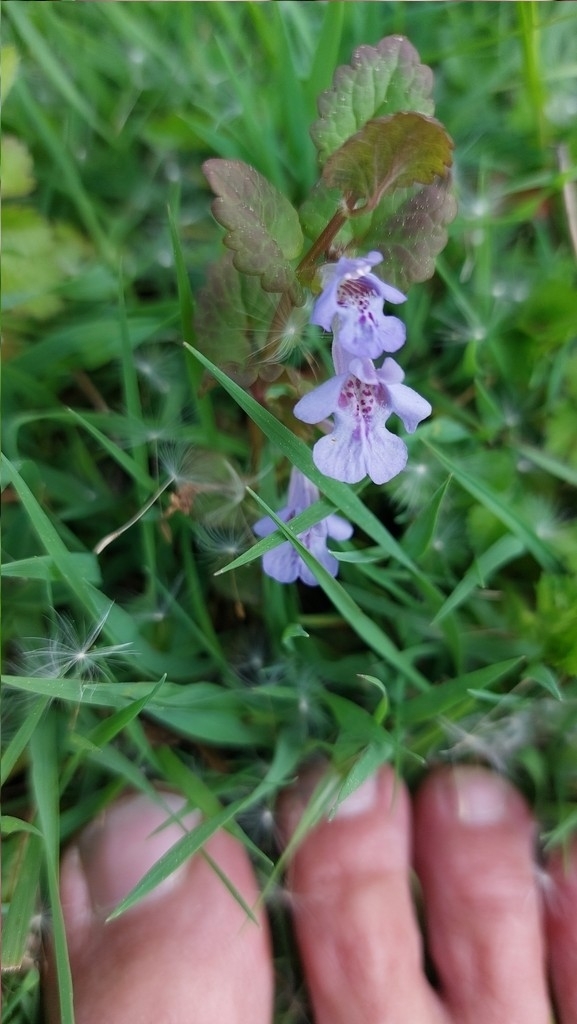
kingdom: Plantae
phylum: Tracheophyta
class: Magnoliopsida
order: Lamiales
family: Lamiaceae
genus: Glechoma
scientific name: Glechoma hederacea
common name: Ground ivy
